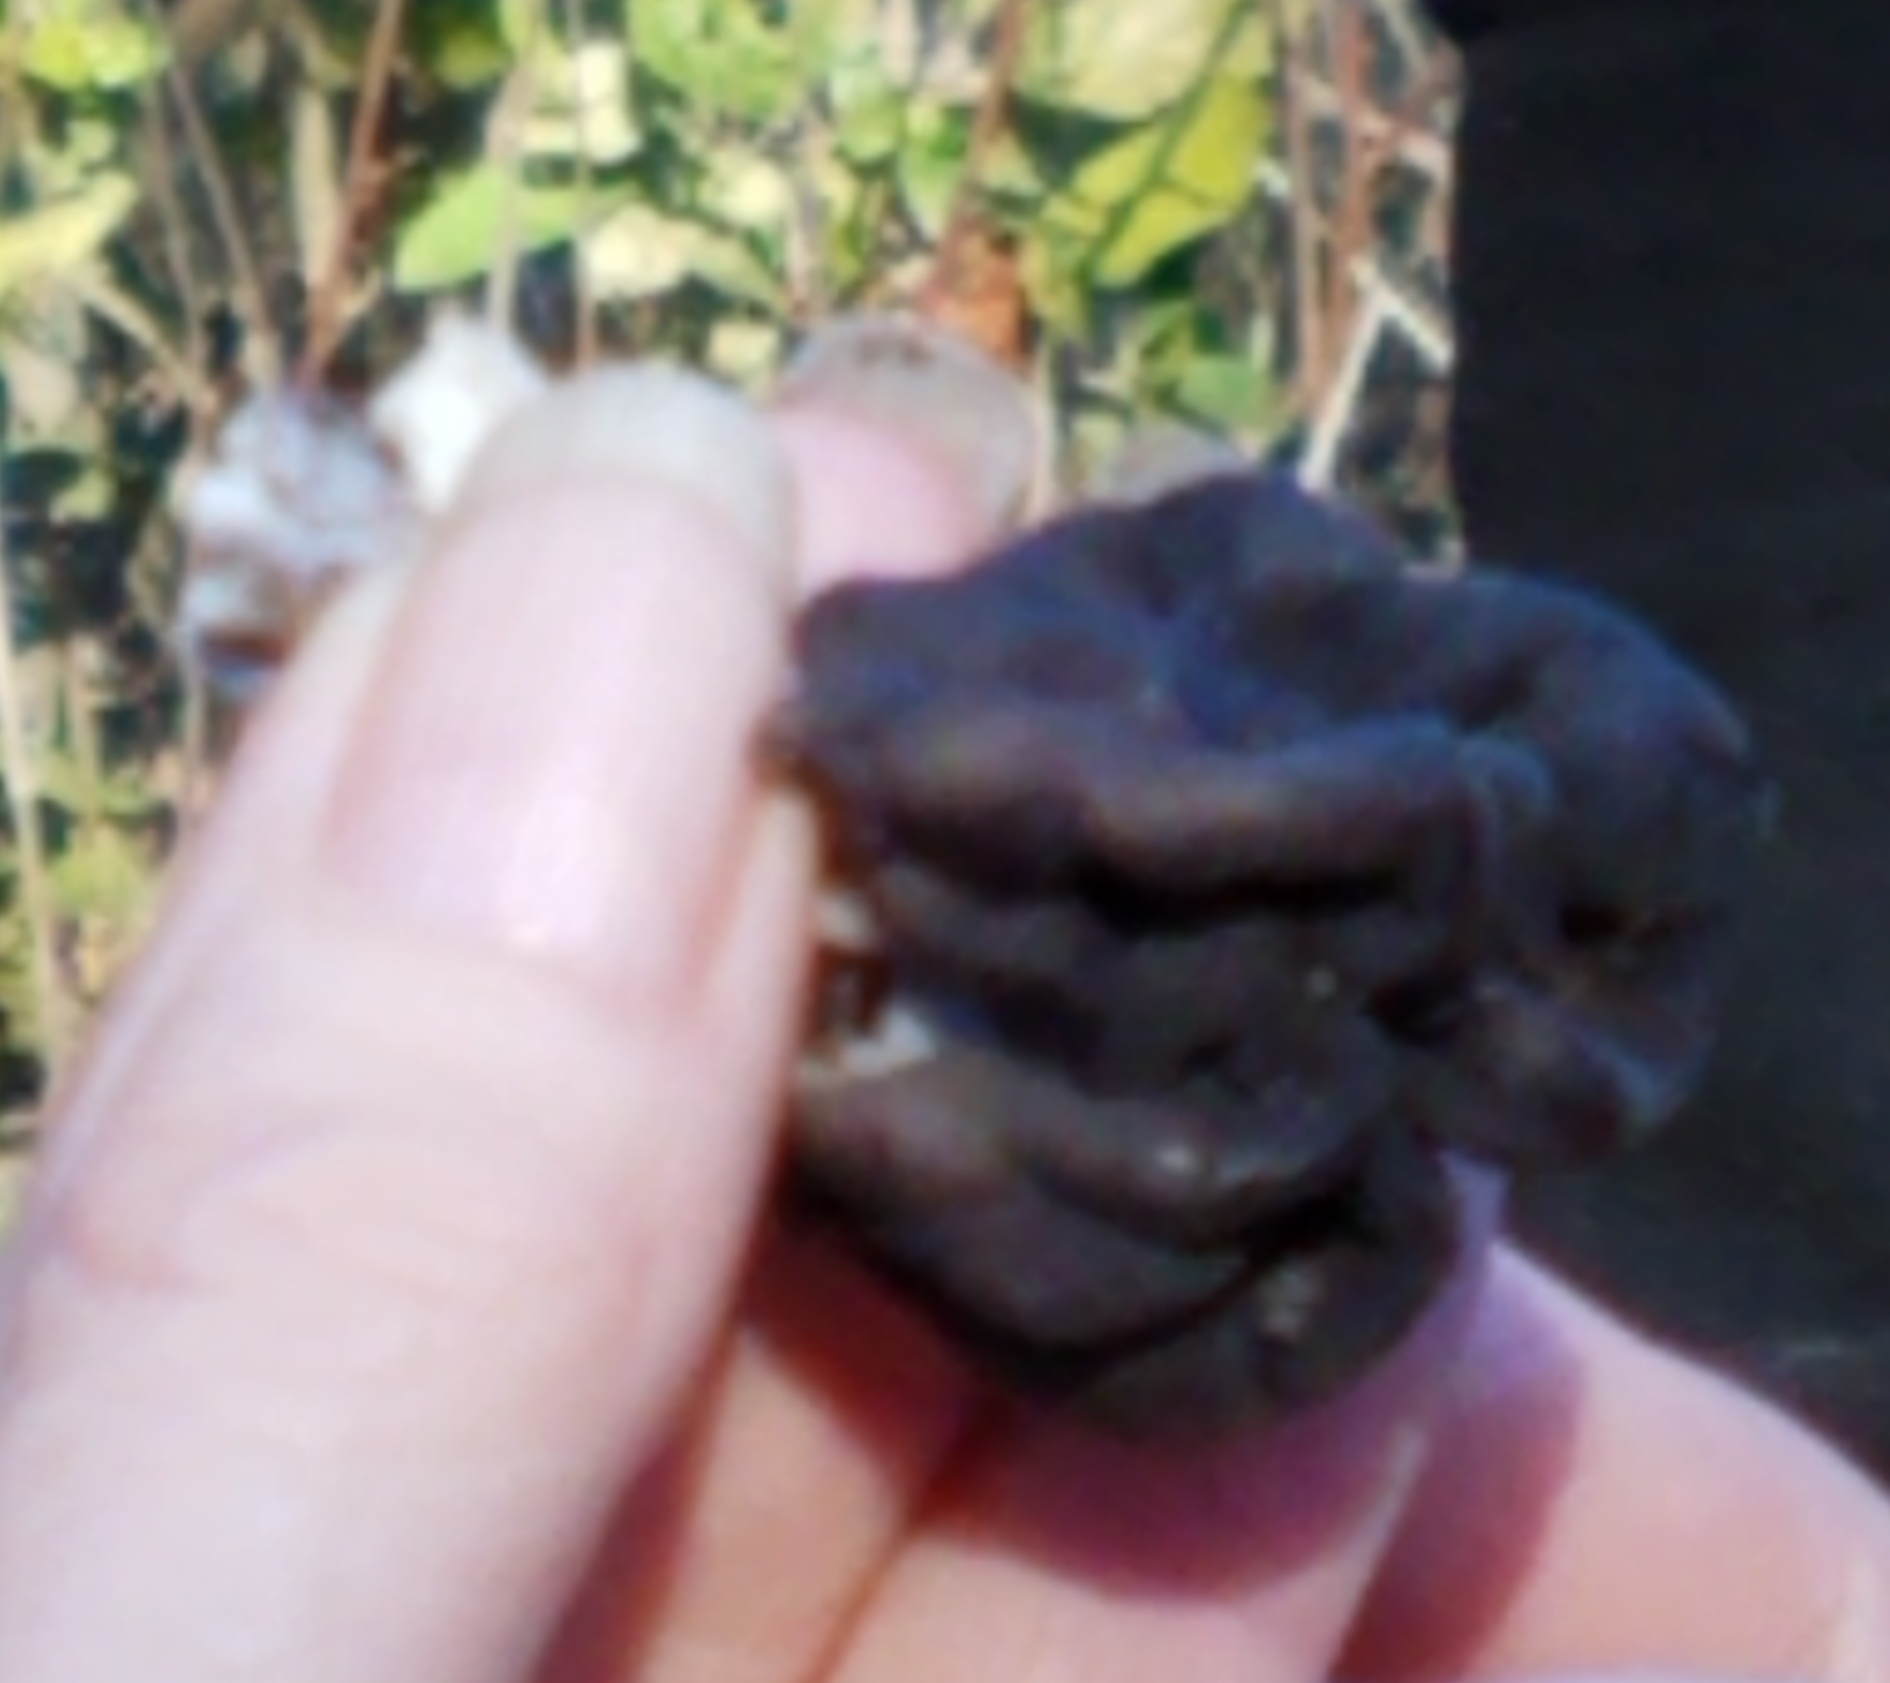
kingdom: Fungi
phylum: Ascomycota
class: Pezizomycetes
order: Pezizales
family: Helvellaceae
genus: Helvella
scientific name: Helvella dryophila
